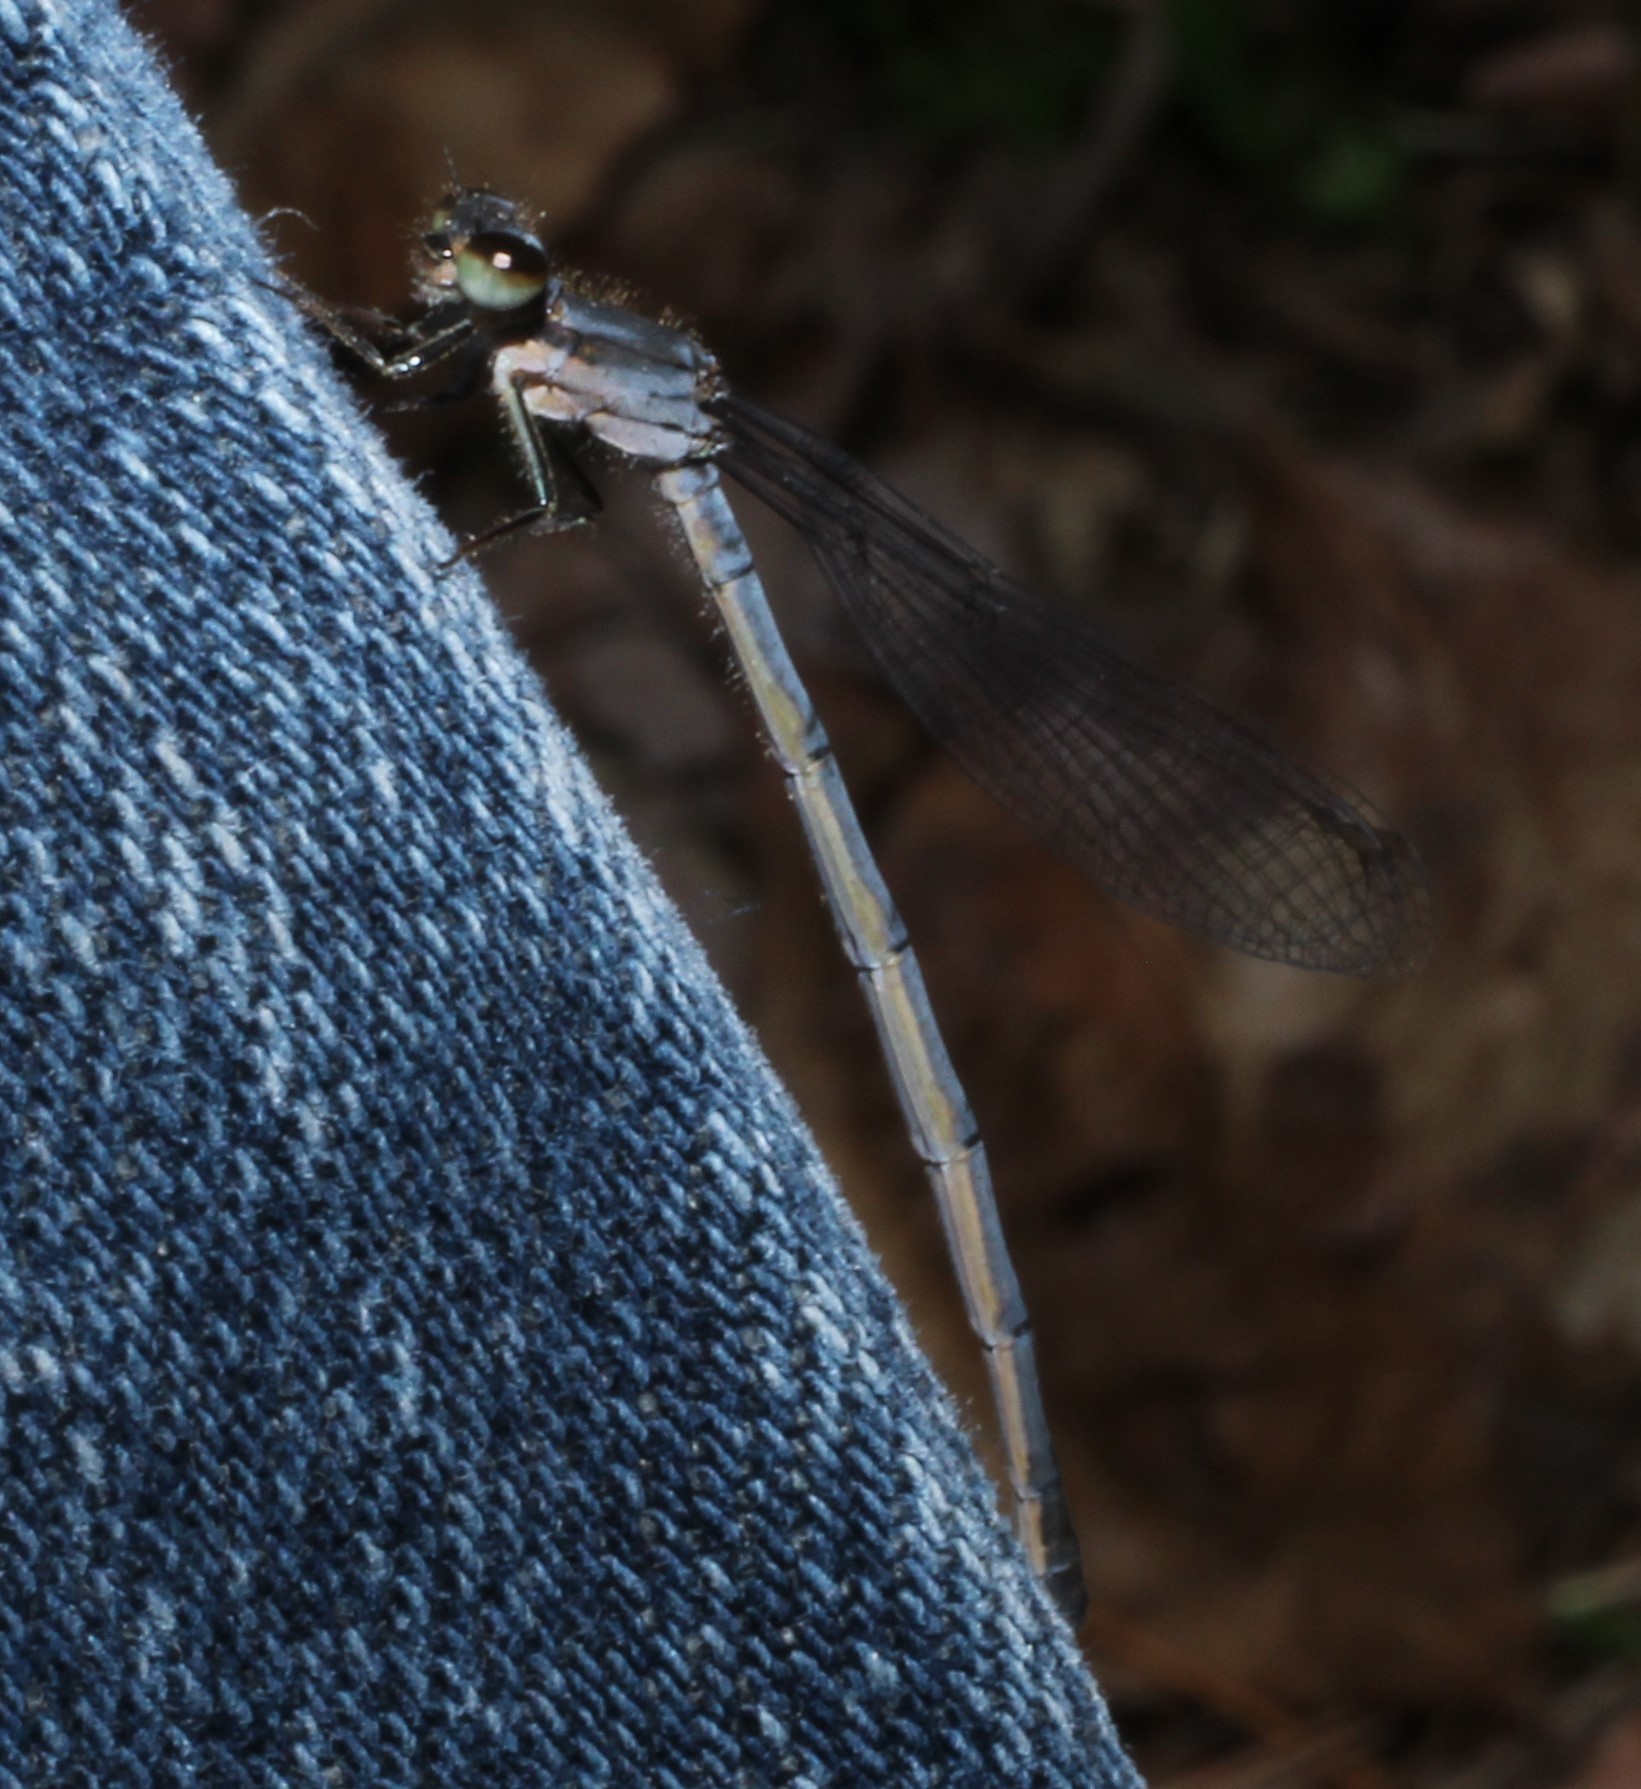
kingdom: Animalia
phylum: Arthropoda
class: Insecta
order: Odonata
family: Coenagrionidae
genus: Ischnura
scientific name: Ischnura posita
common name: Fragile forktail
